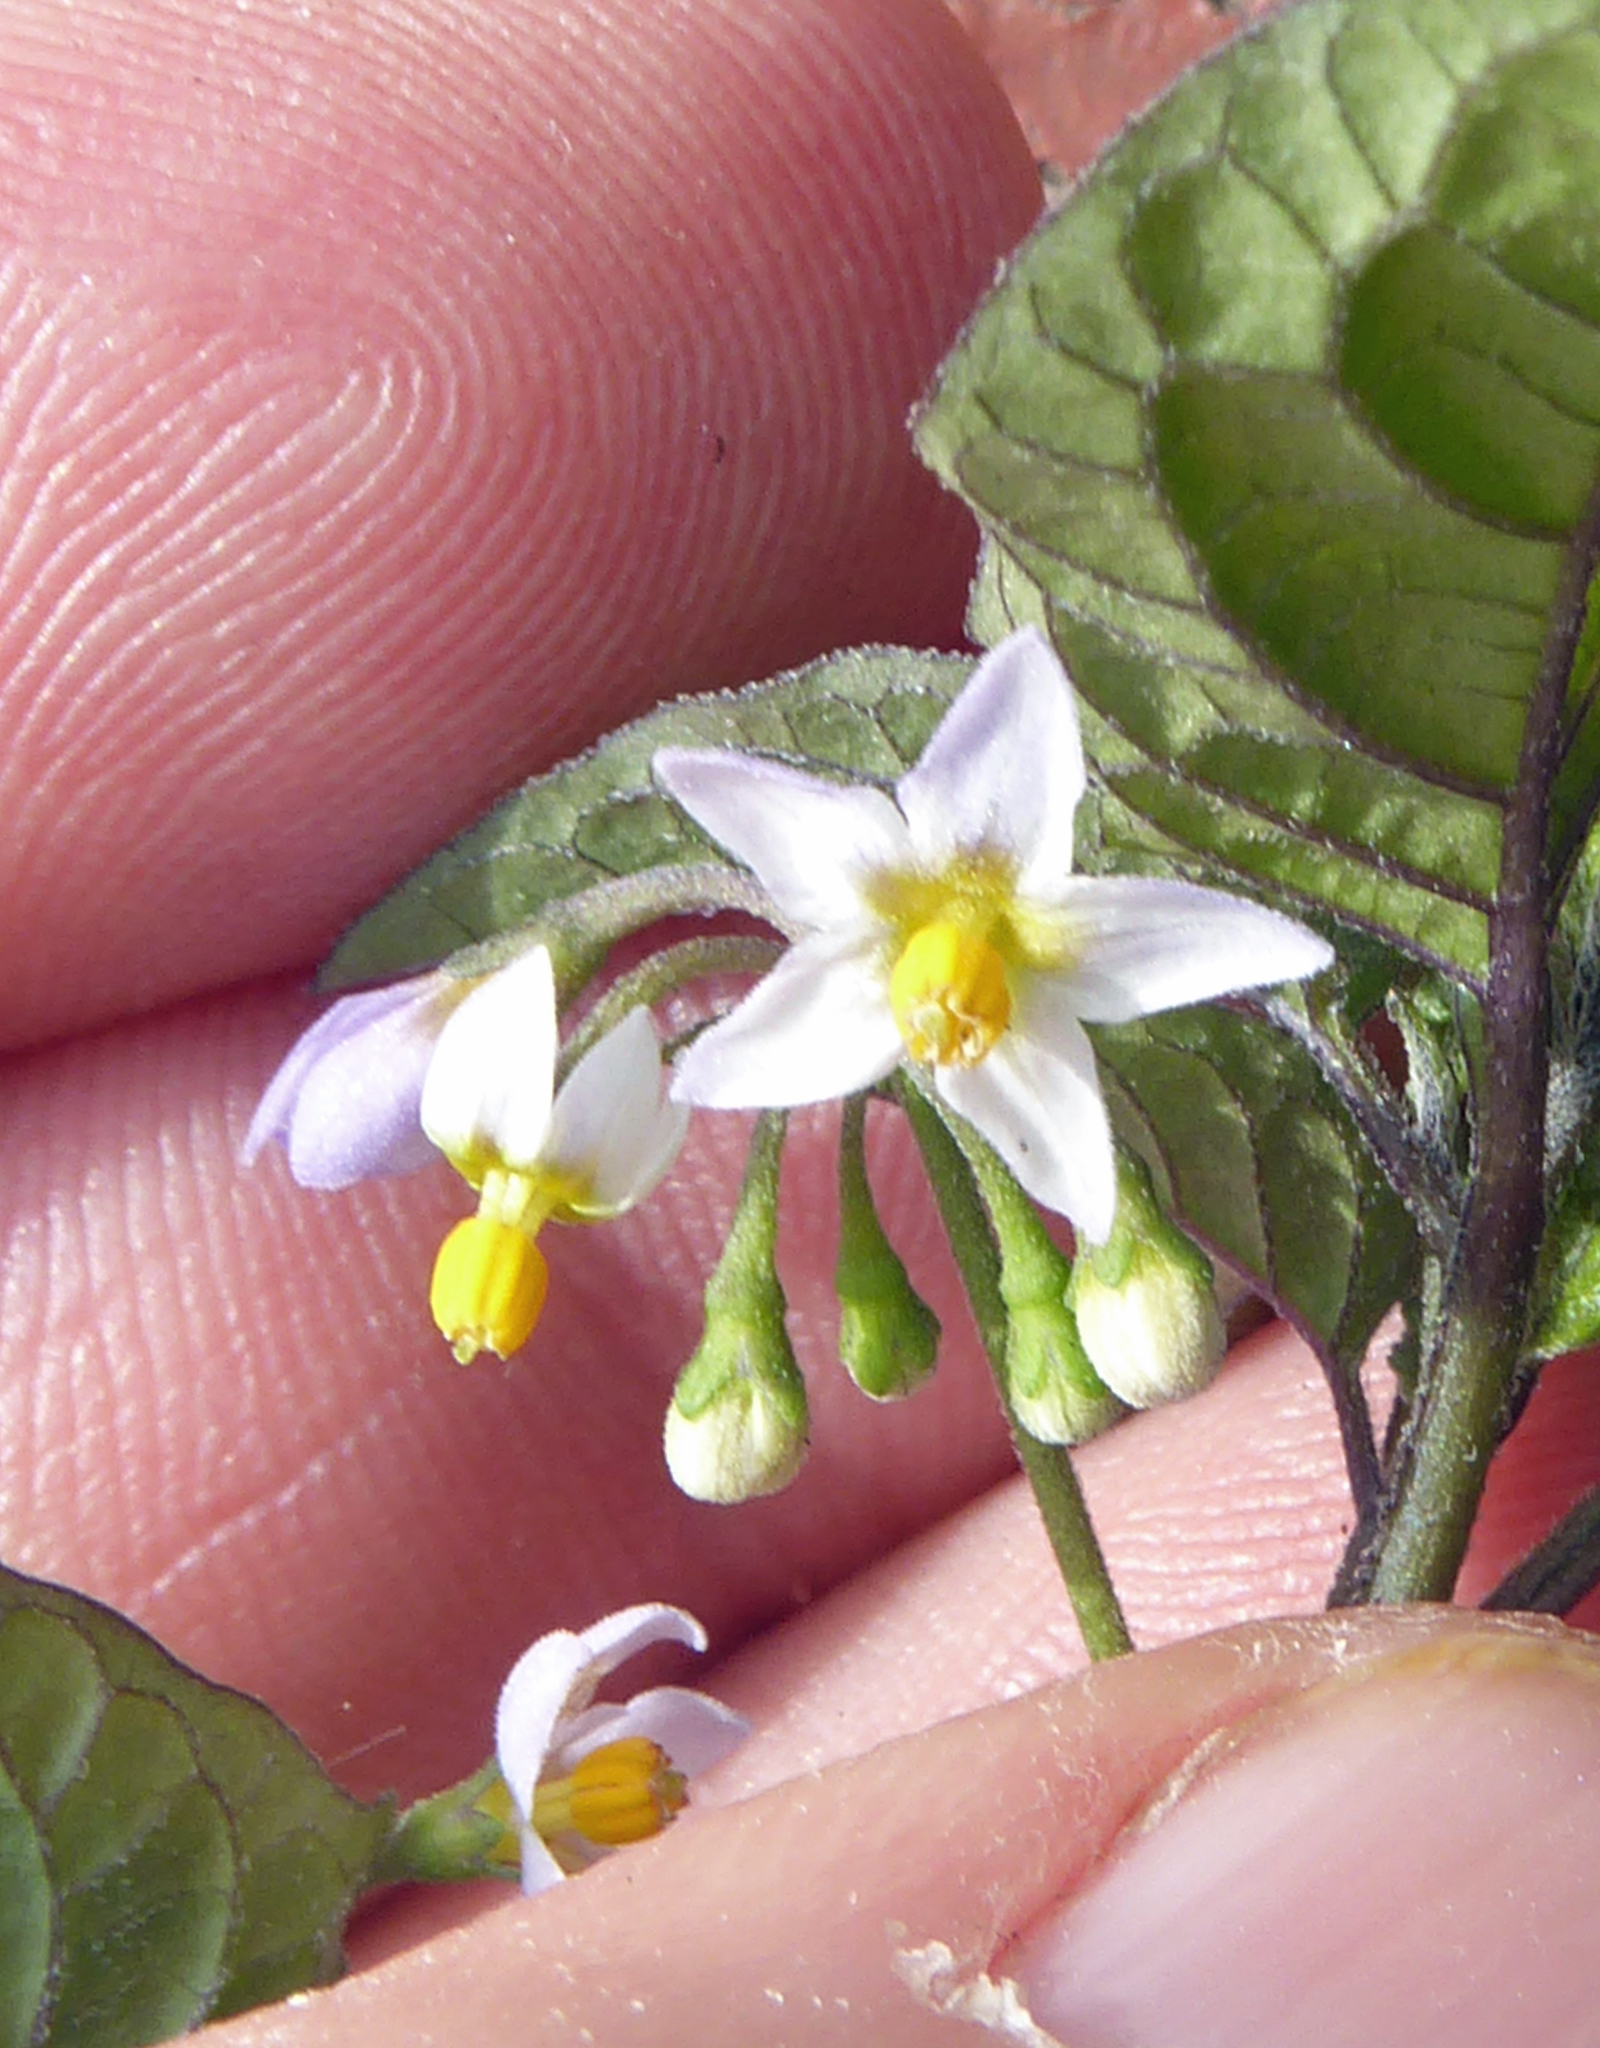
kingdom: Plantae
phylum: Tracheophyta
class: Magnoliopsida
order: Solanales
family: Solanaceae
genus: Solanum
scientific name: Solanum opacum
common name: Green-berry nightshade
